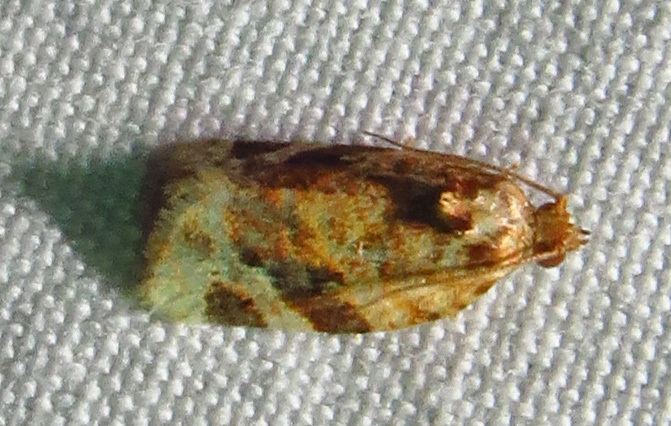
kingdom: Animalia
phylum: Arthropoda
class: Insecta
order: Lepidoptera
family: Tortricidae
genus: Argyrotaenia
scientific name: Argyrotaenia velutinana
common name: Red-banded leafroller moth
